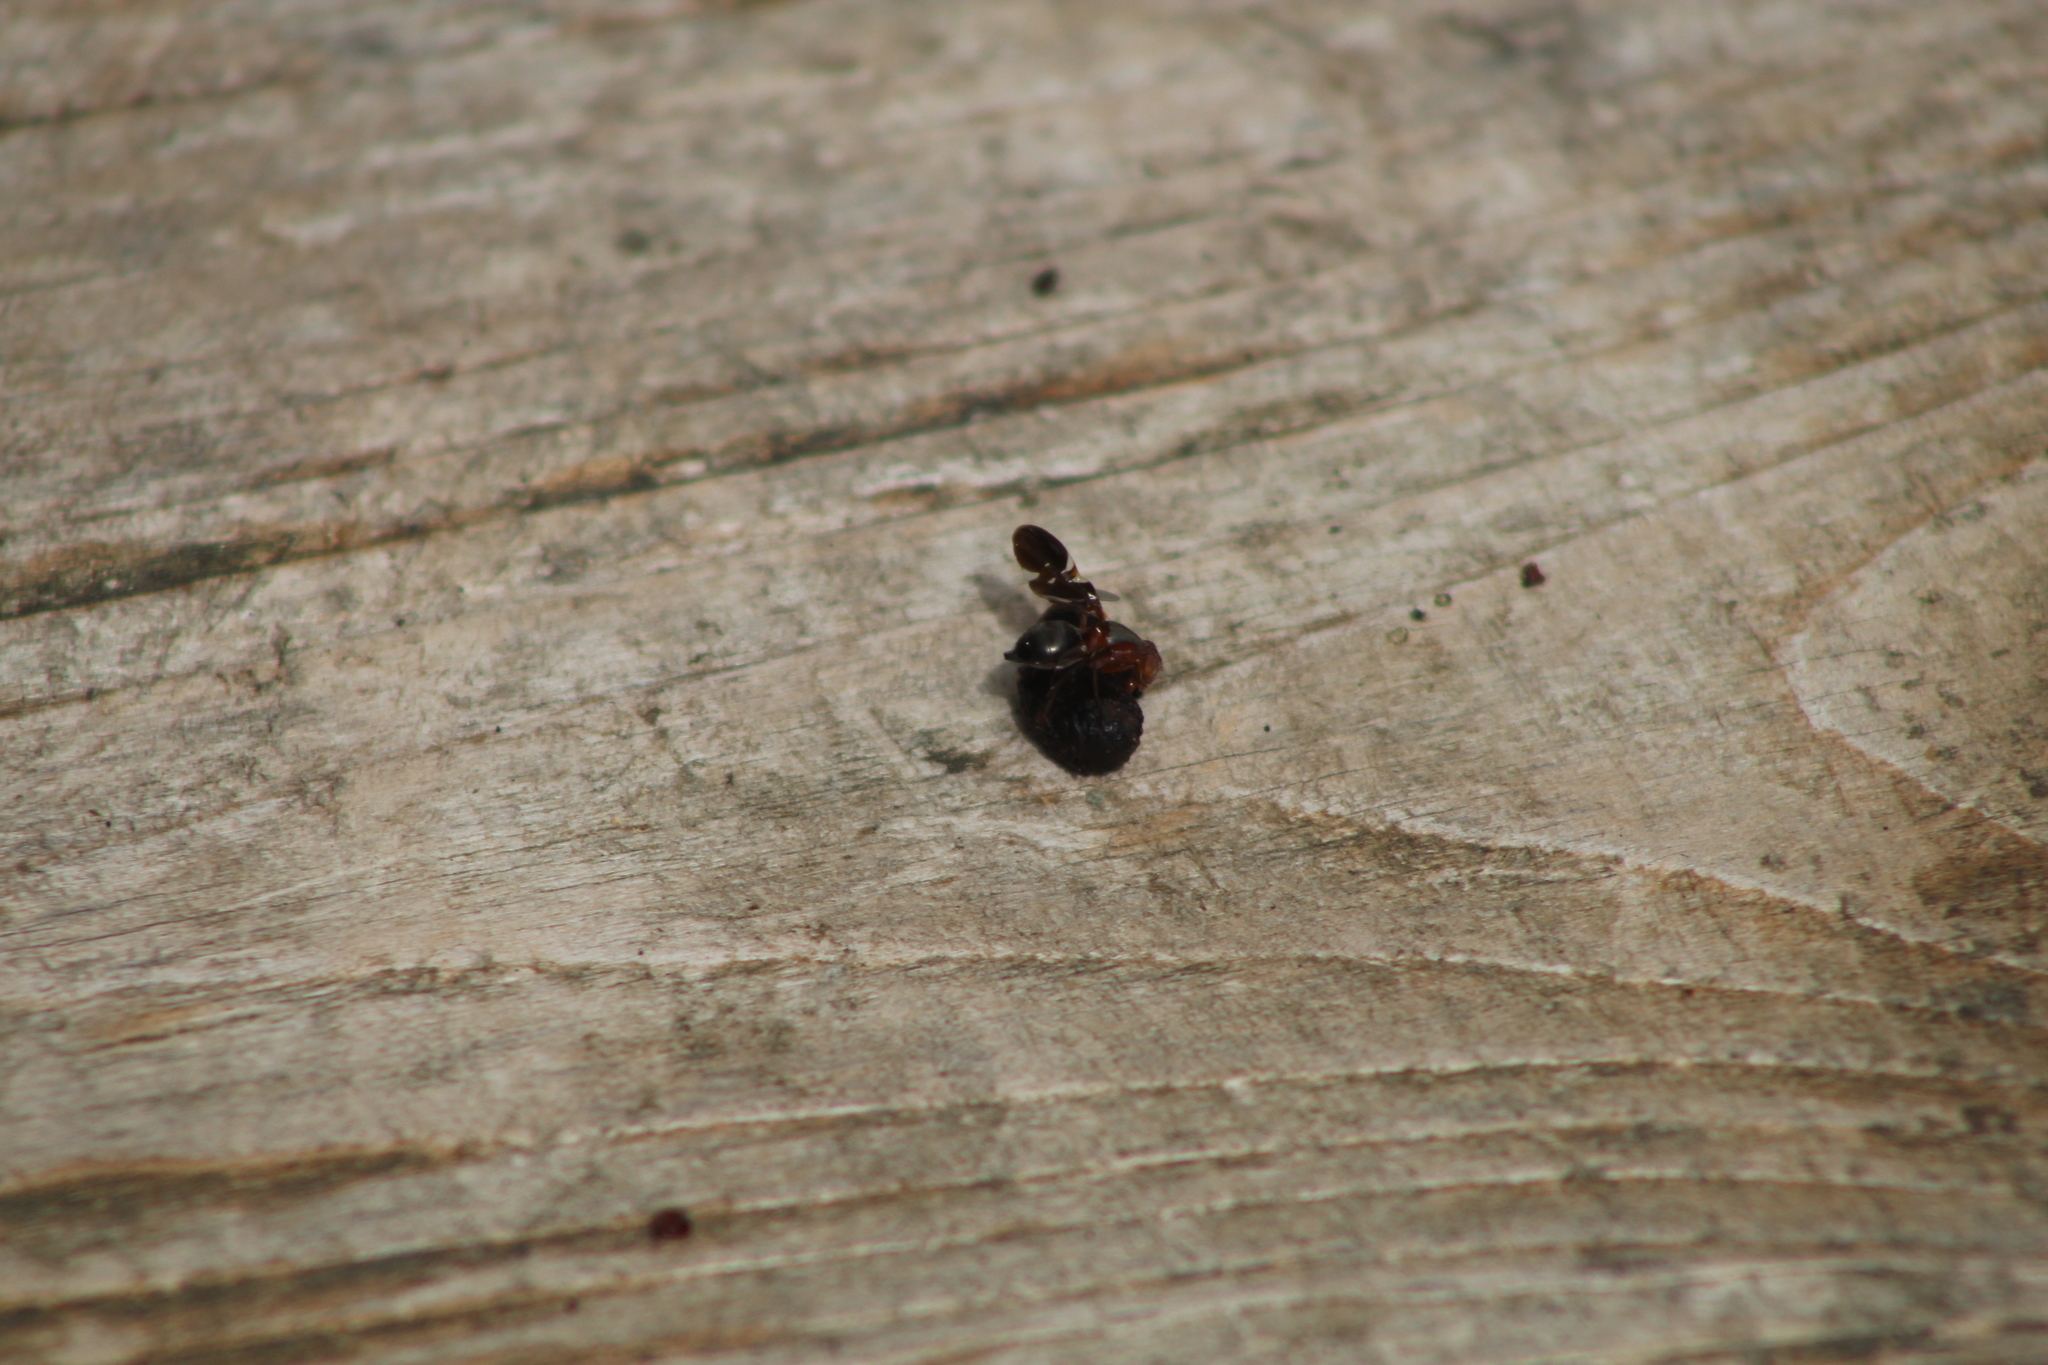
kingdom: Animalia
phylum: Arthropoda
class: Insecta
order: Diptera
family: Ulidiidae
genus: Delphinia
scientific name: Delphinia picta
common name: Common picture-winged fly
